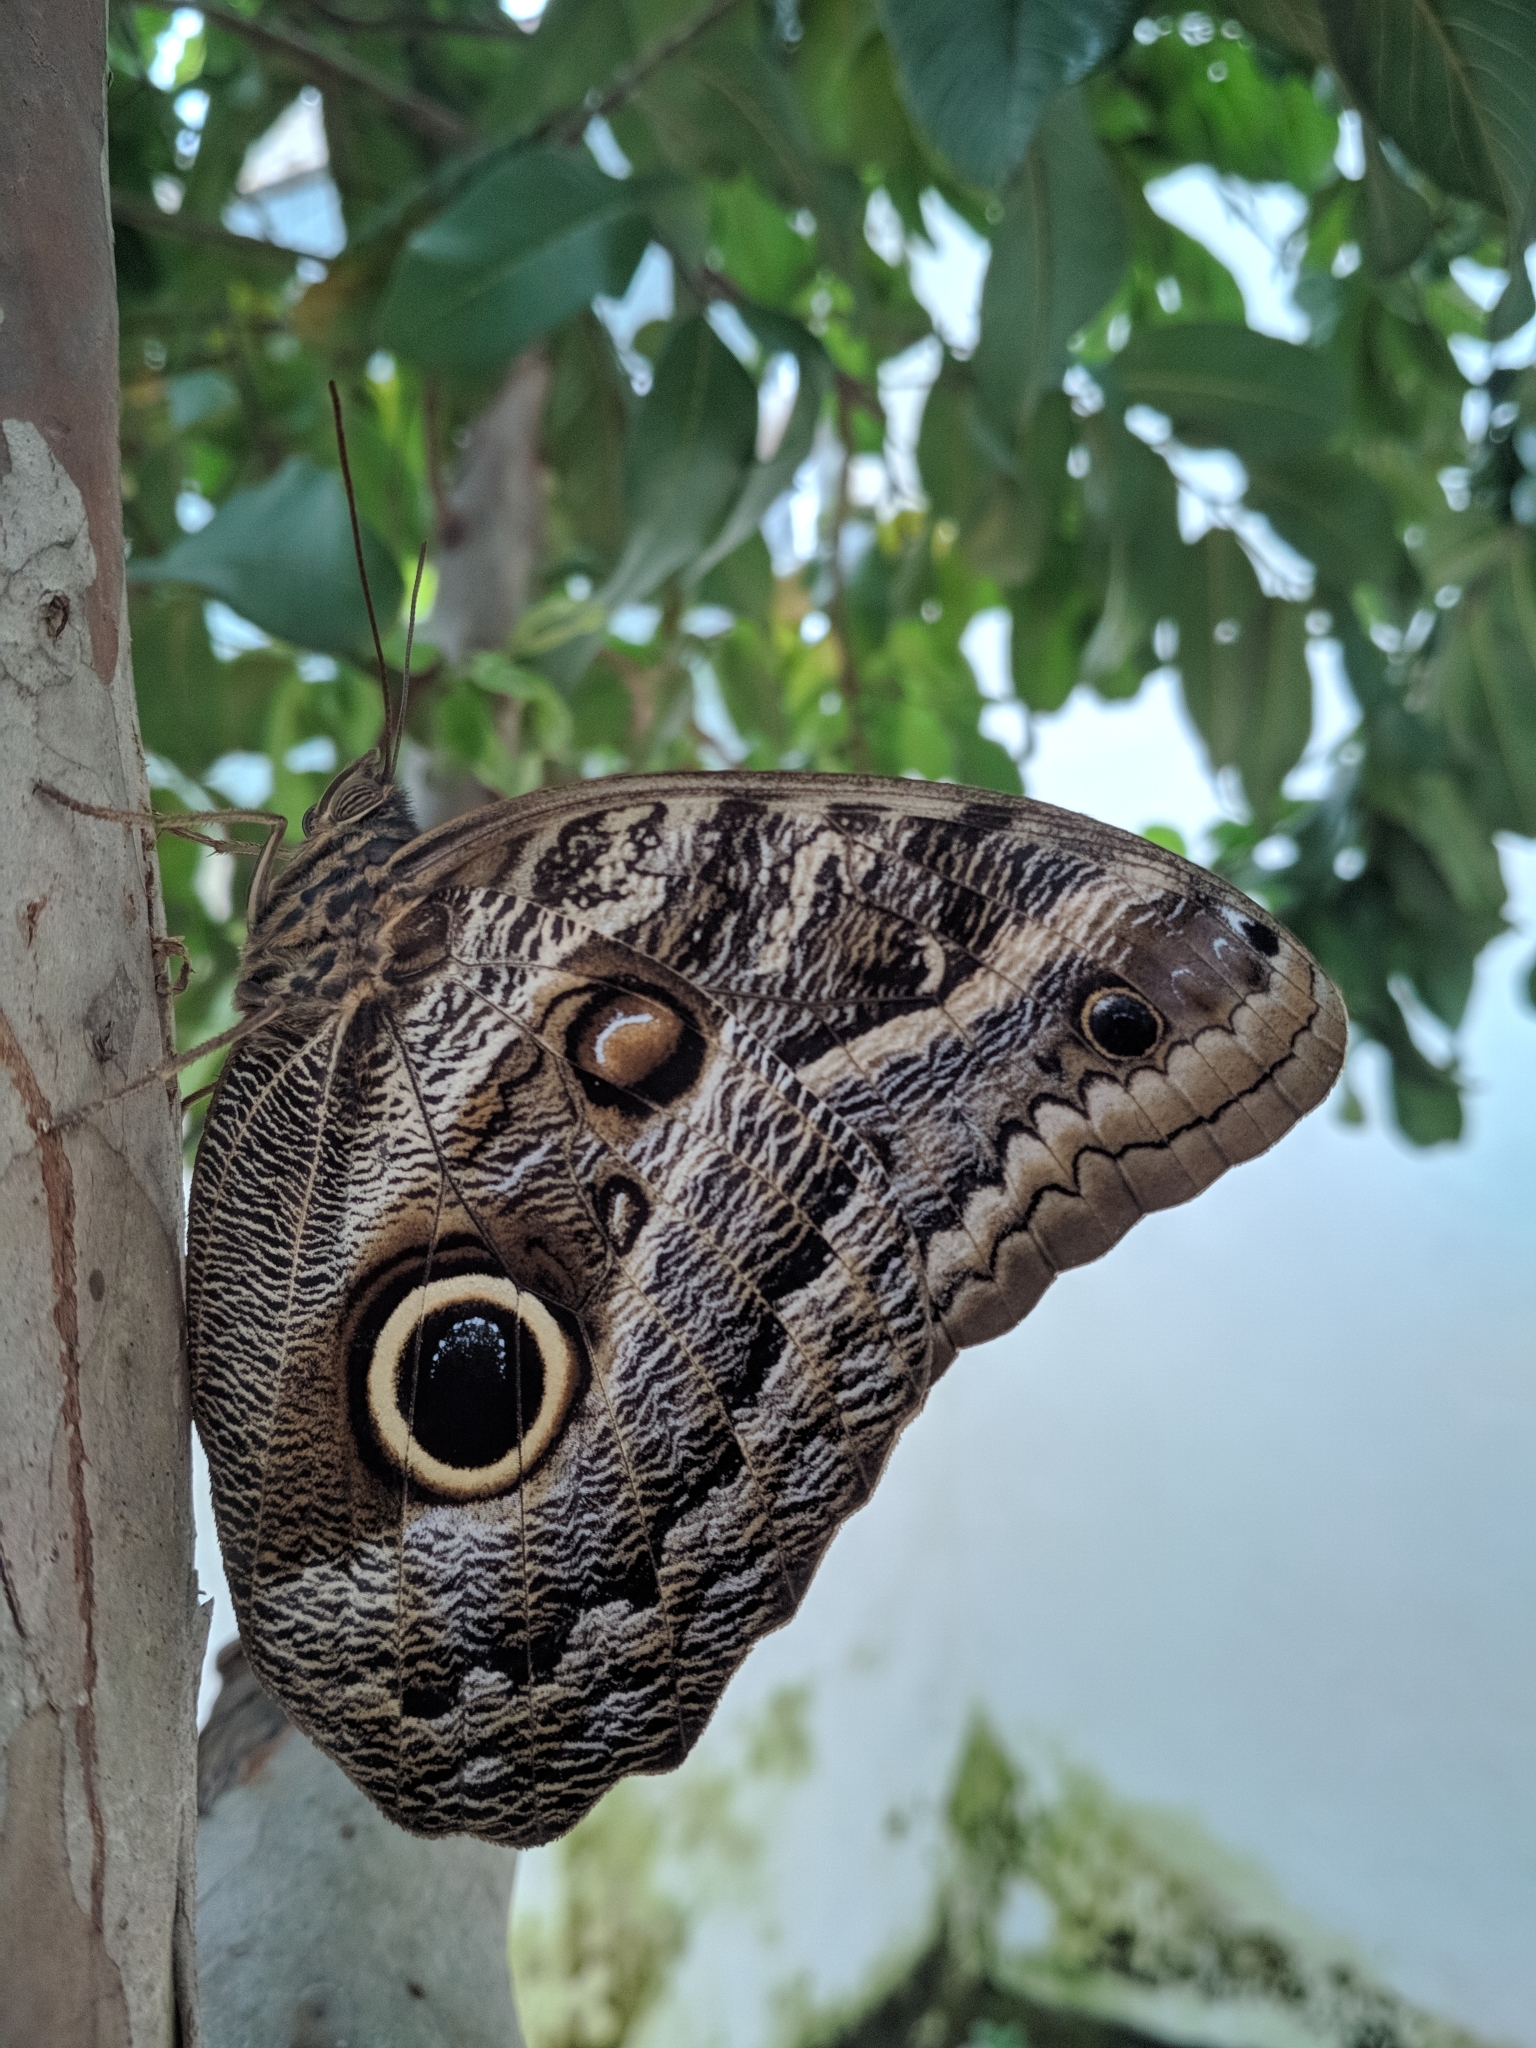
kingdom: Animalia
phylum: Arthropoda
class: Insecta
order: Lepidoptera
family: Nymphalidae
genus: Caligo
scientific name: Caligo teucer
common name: Teucer owl butterfly
